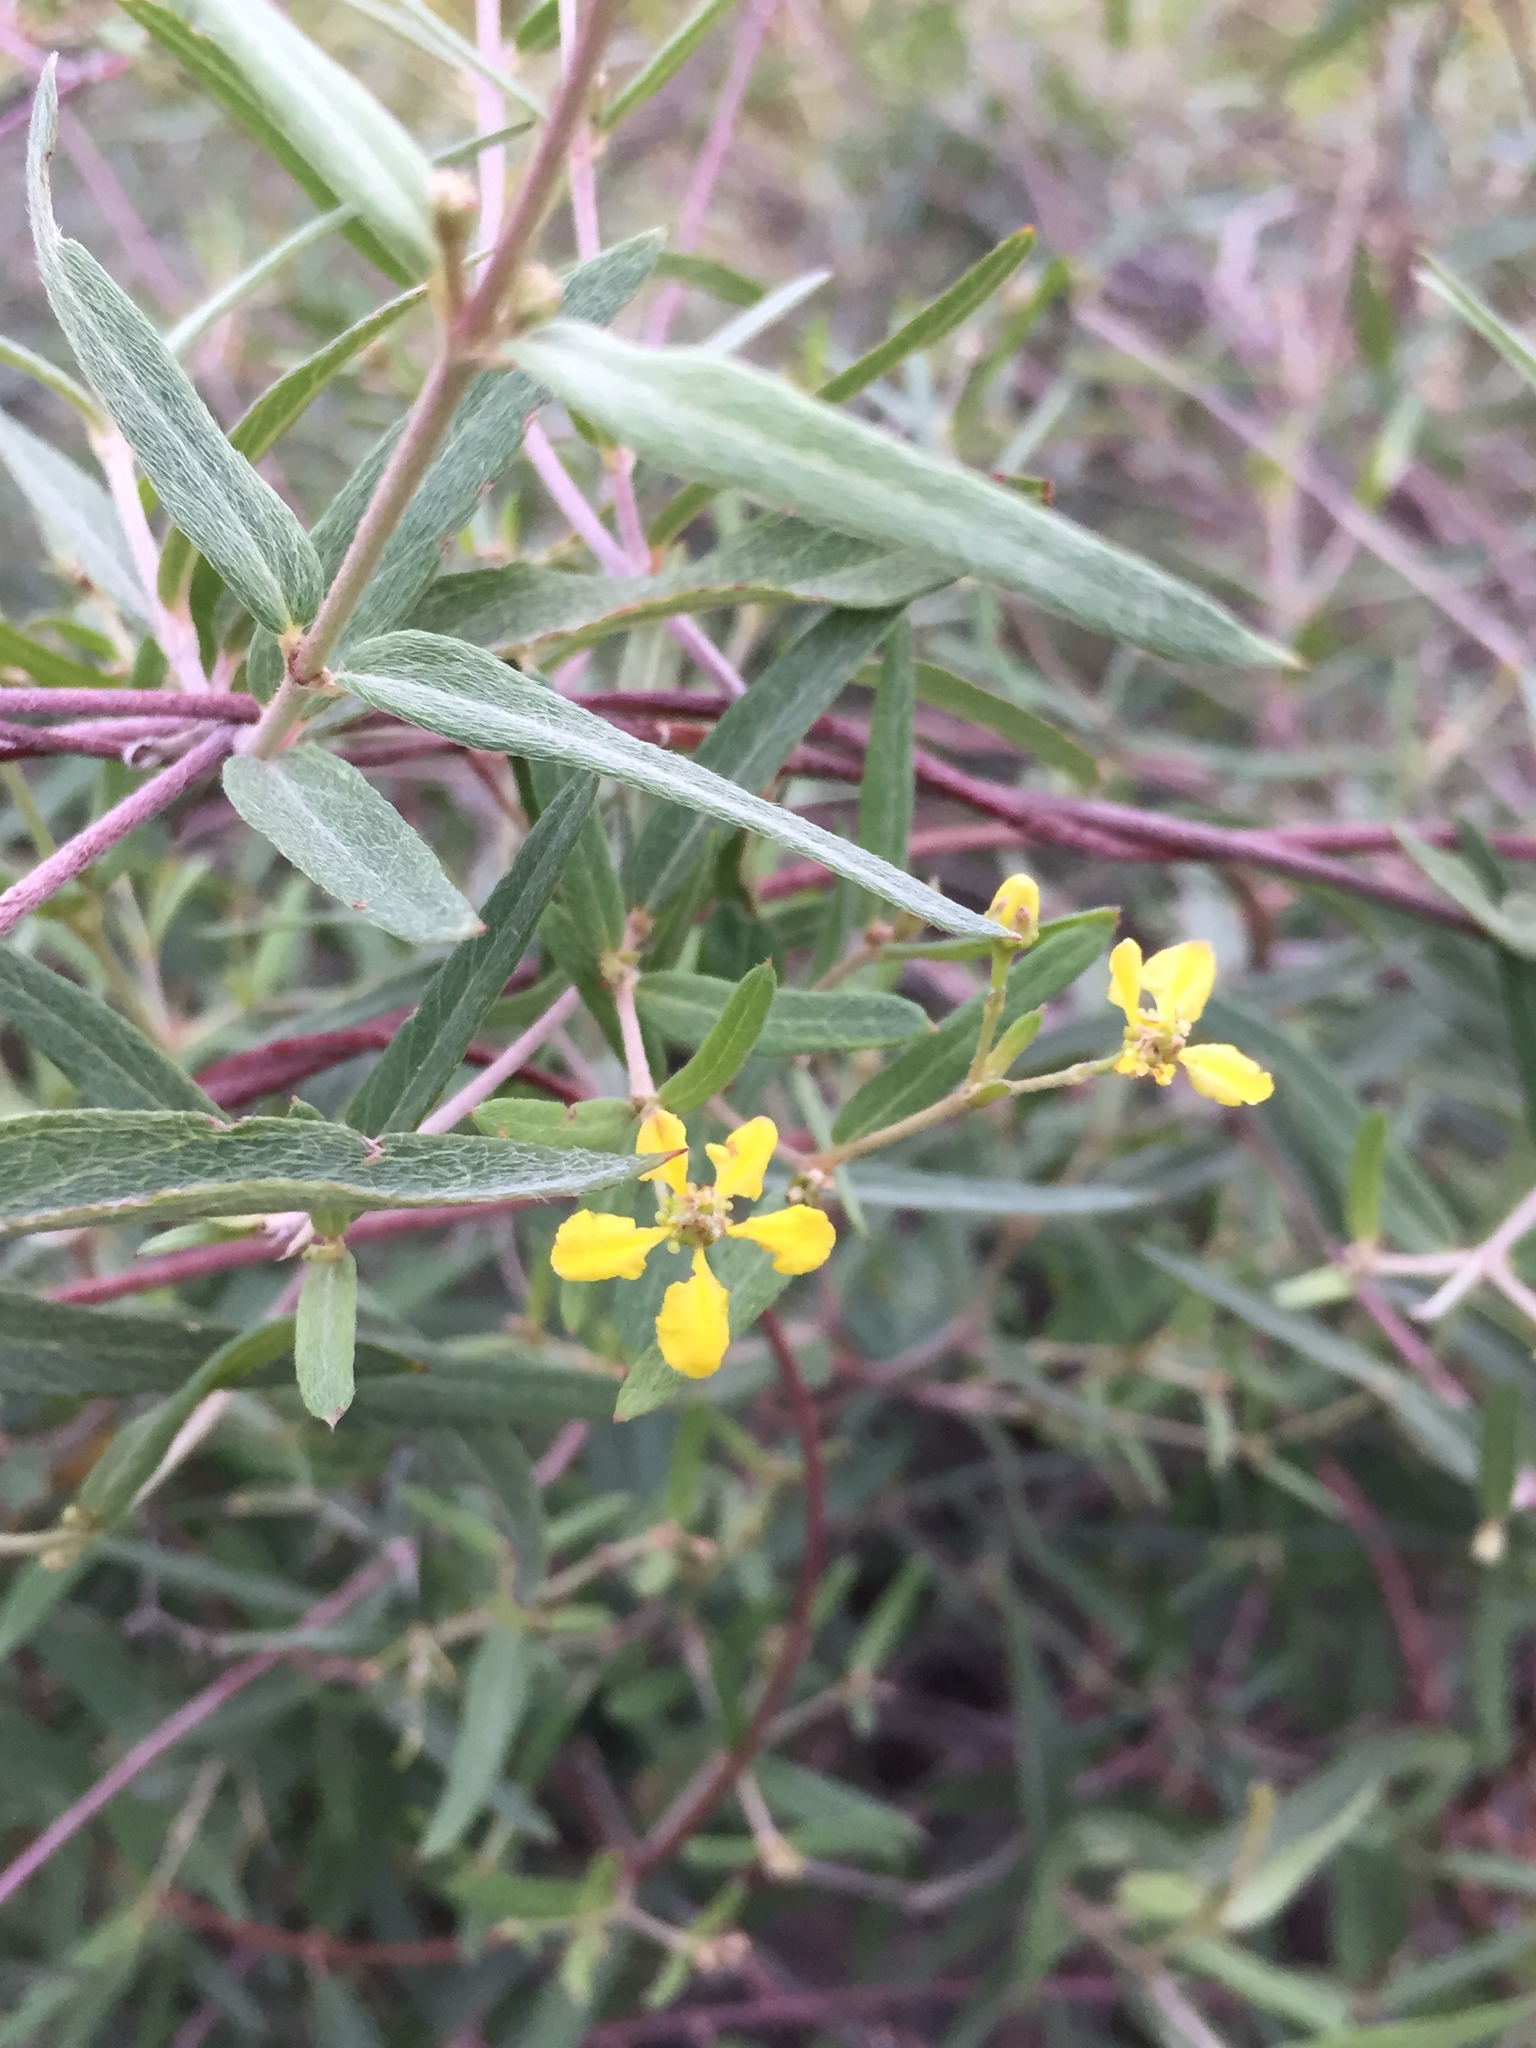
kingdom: Plantae
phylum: Tracheophyta
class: Magnoliopsida
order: Malpighiales
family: Malpighiaceae
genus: Cottsia
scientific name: Cottsia gracilis
